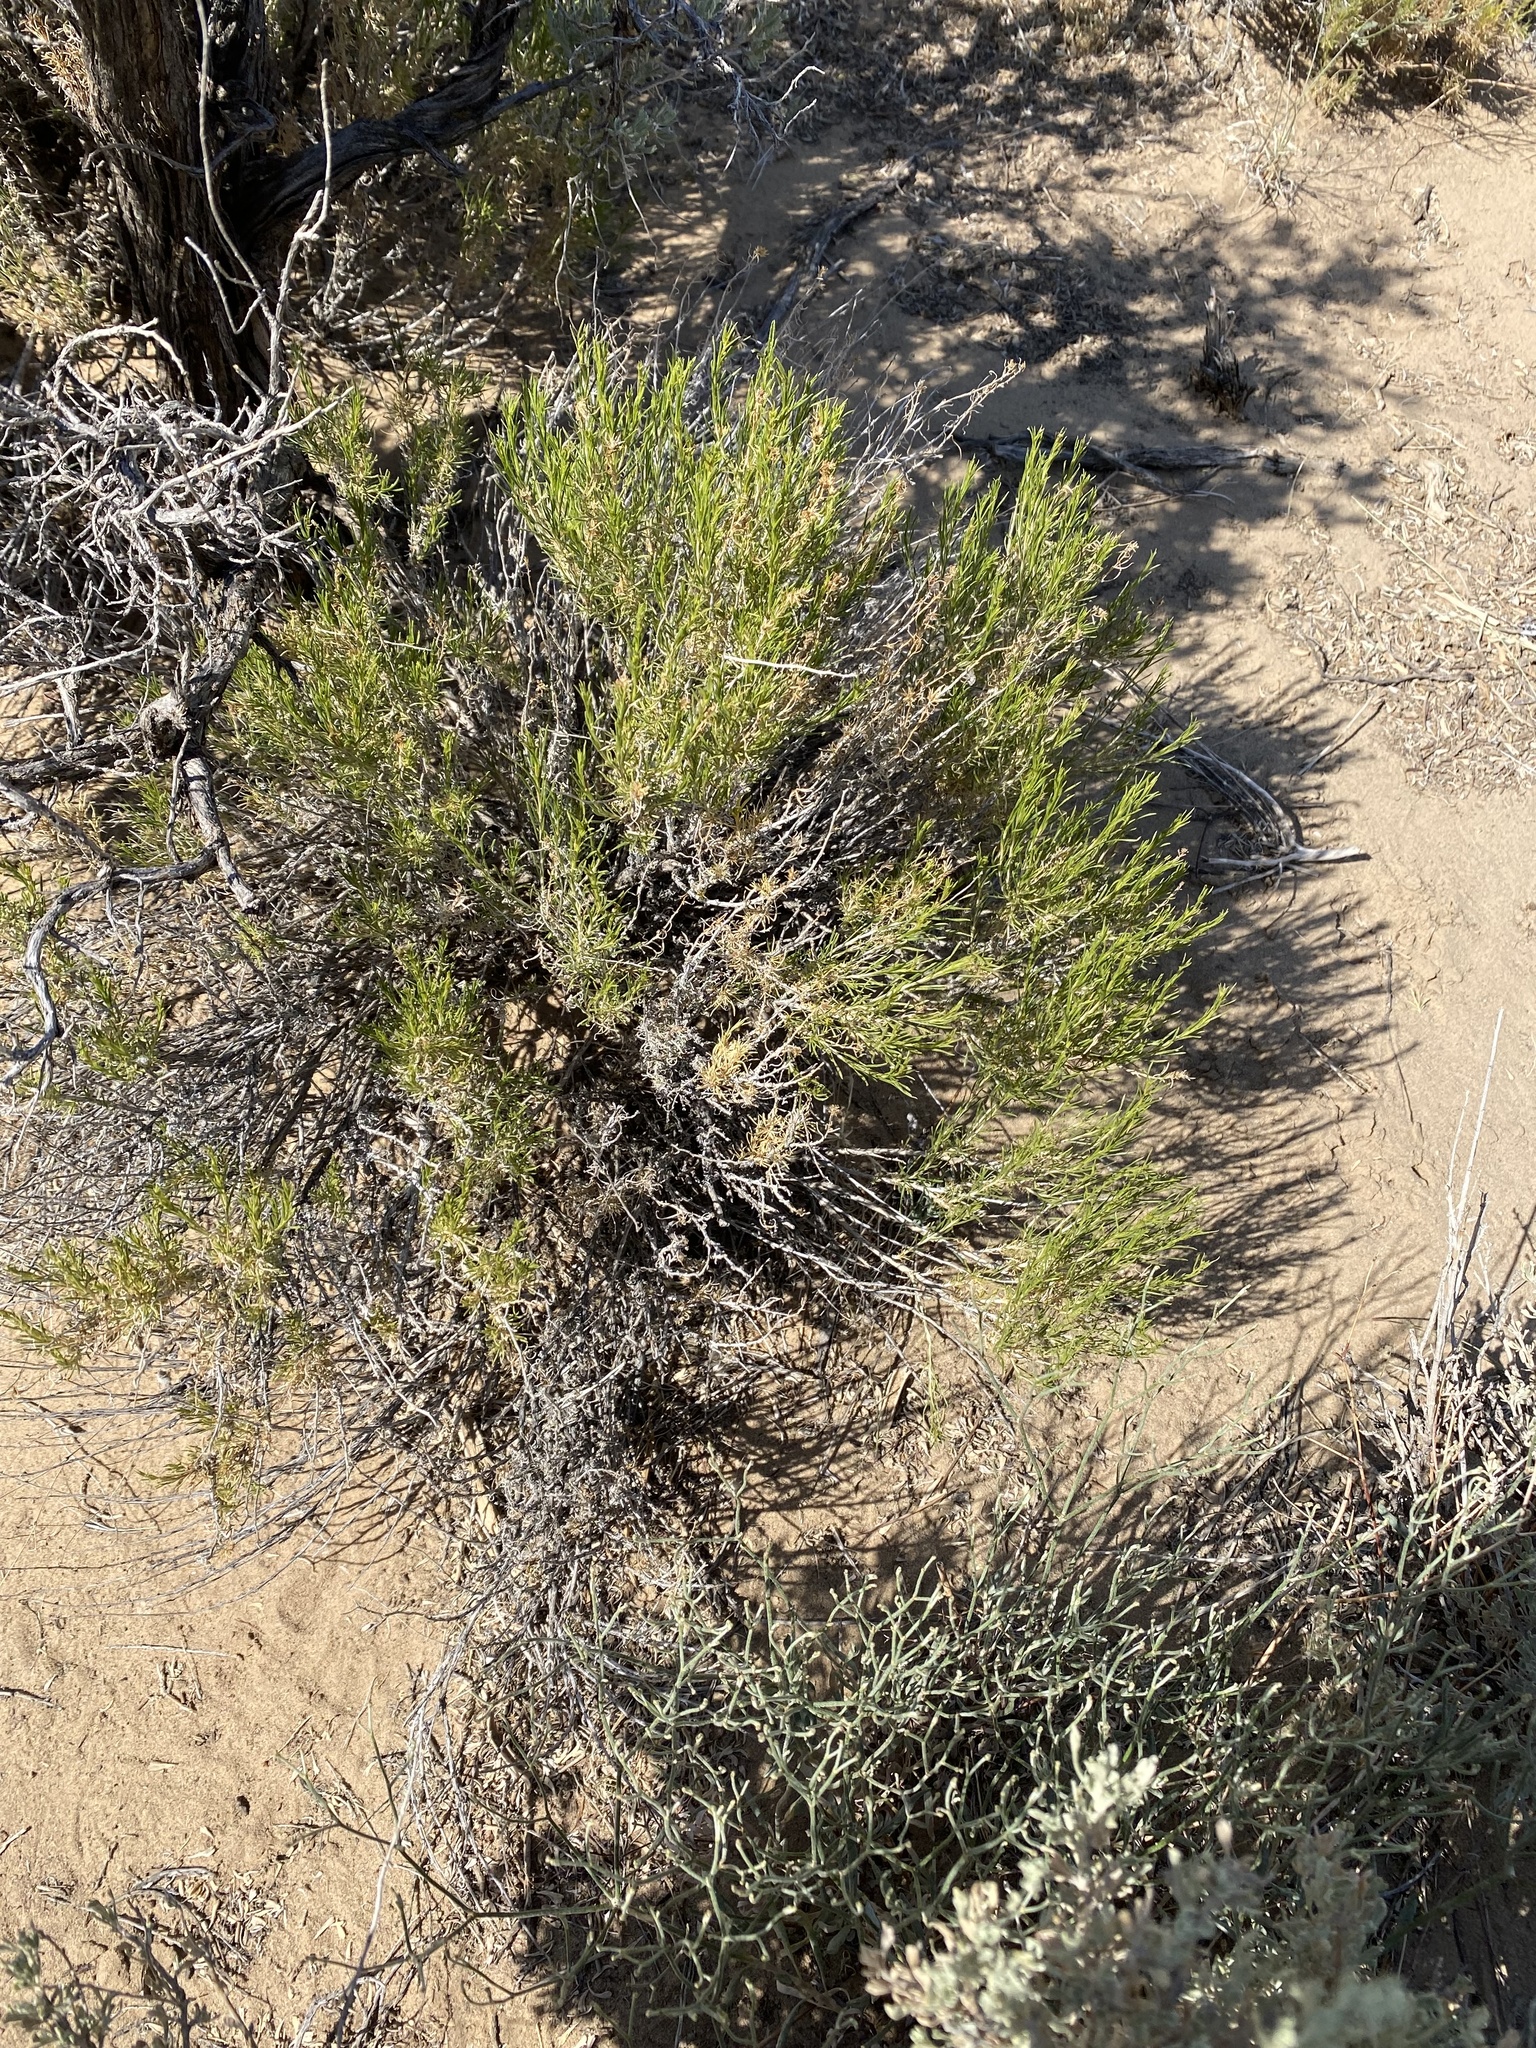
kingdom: Plantae
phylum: Tracheophyta
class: Magnoliopsida
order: Asterales
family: Asteraceae
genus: Gutierrezia
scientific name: Gutierrezia sarothrae
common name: Broom snakeweed
